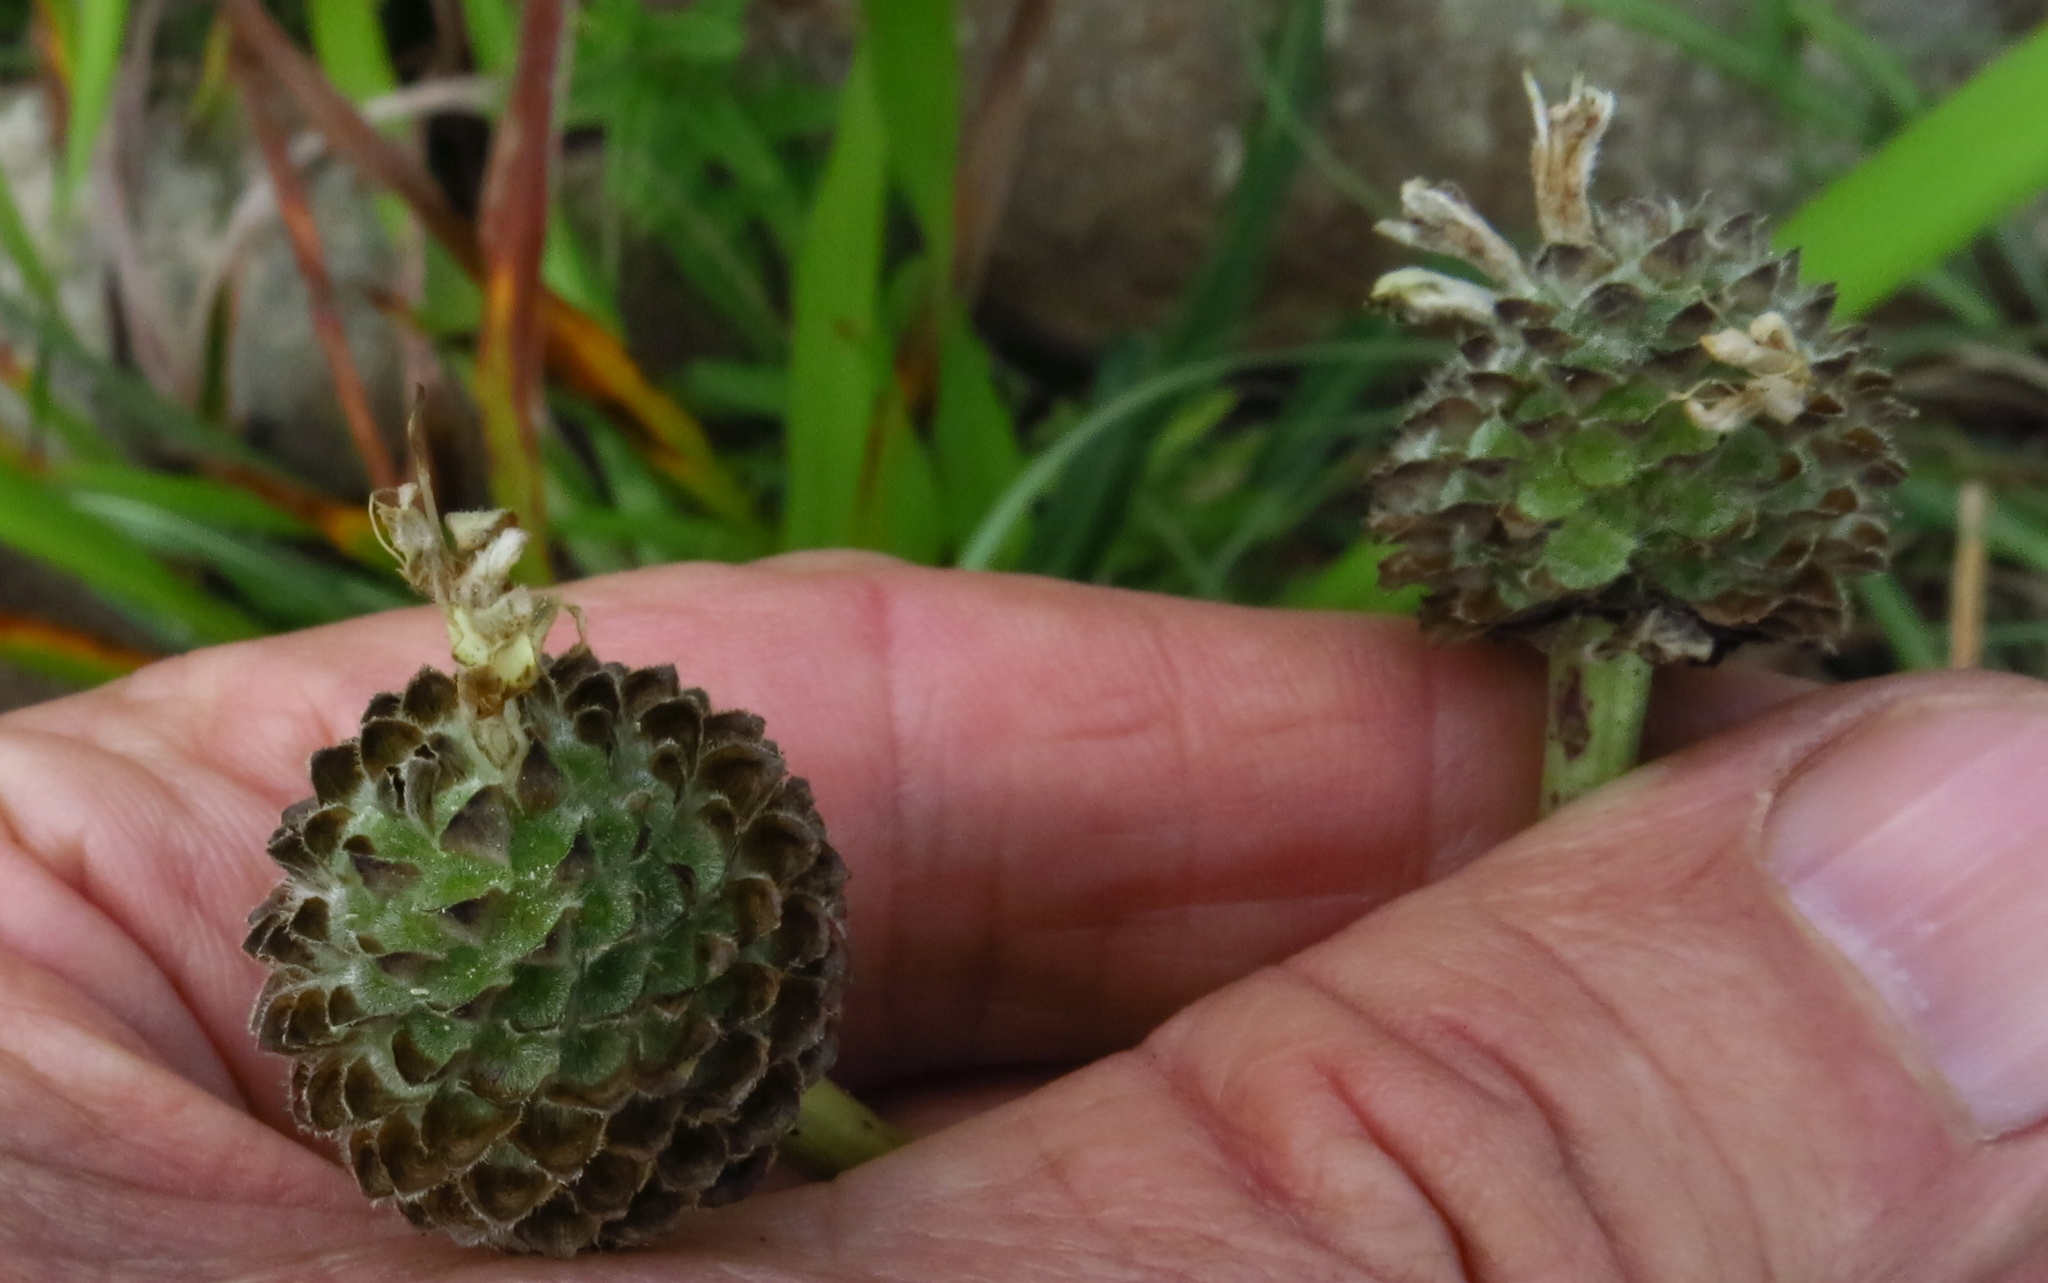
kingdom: Plantae
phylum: Tracheophyta
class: Magnoliopsida
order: Dipsacales
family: Caprifoliaceae
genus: Cephalaria
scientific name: Cephalaria humilis
